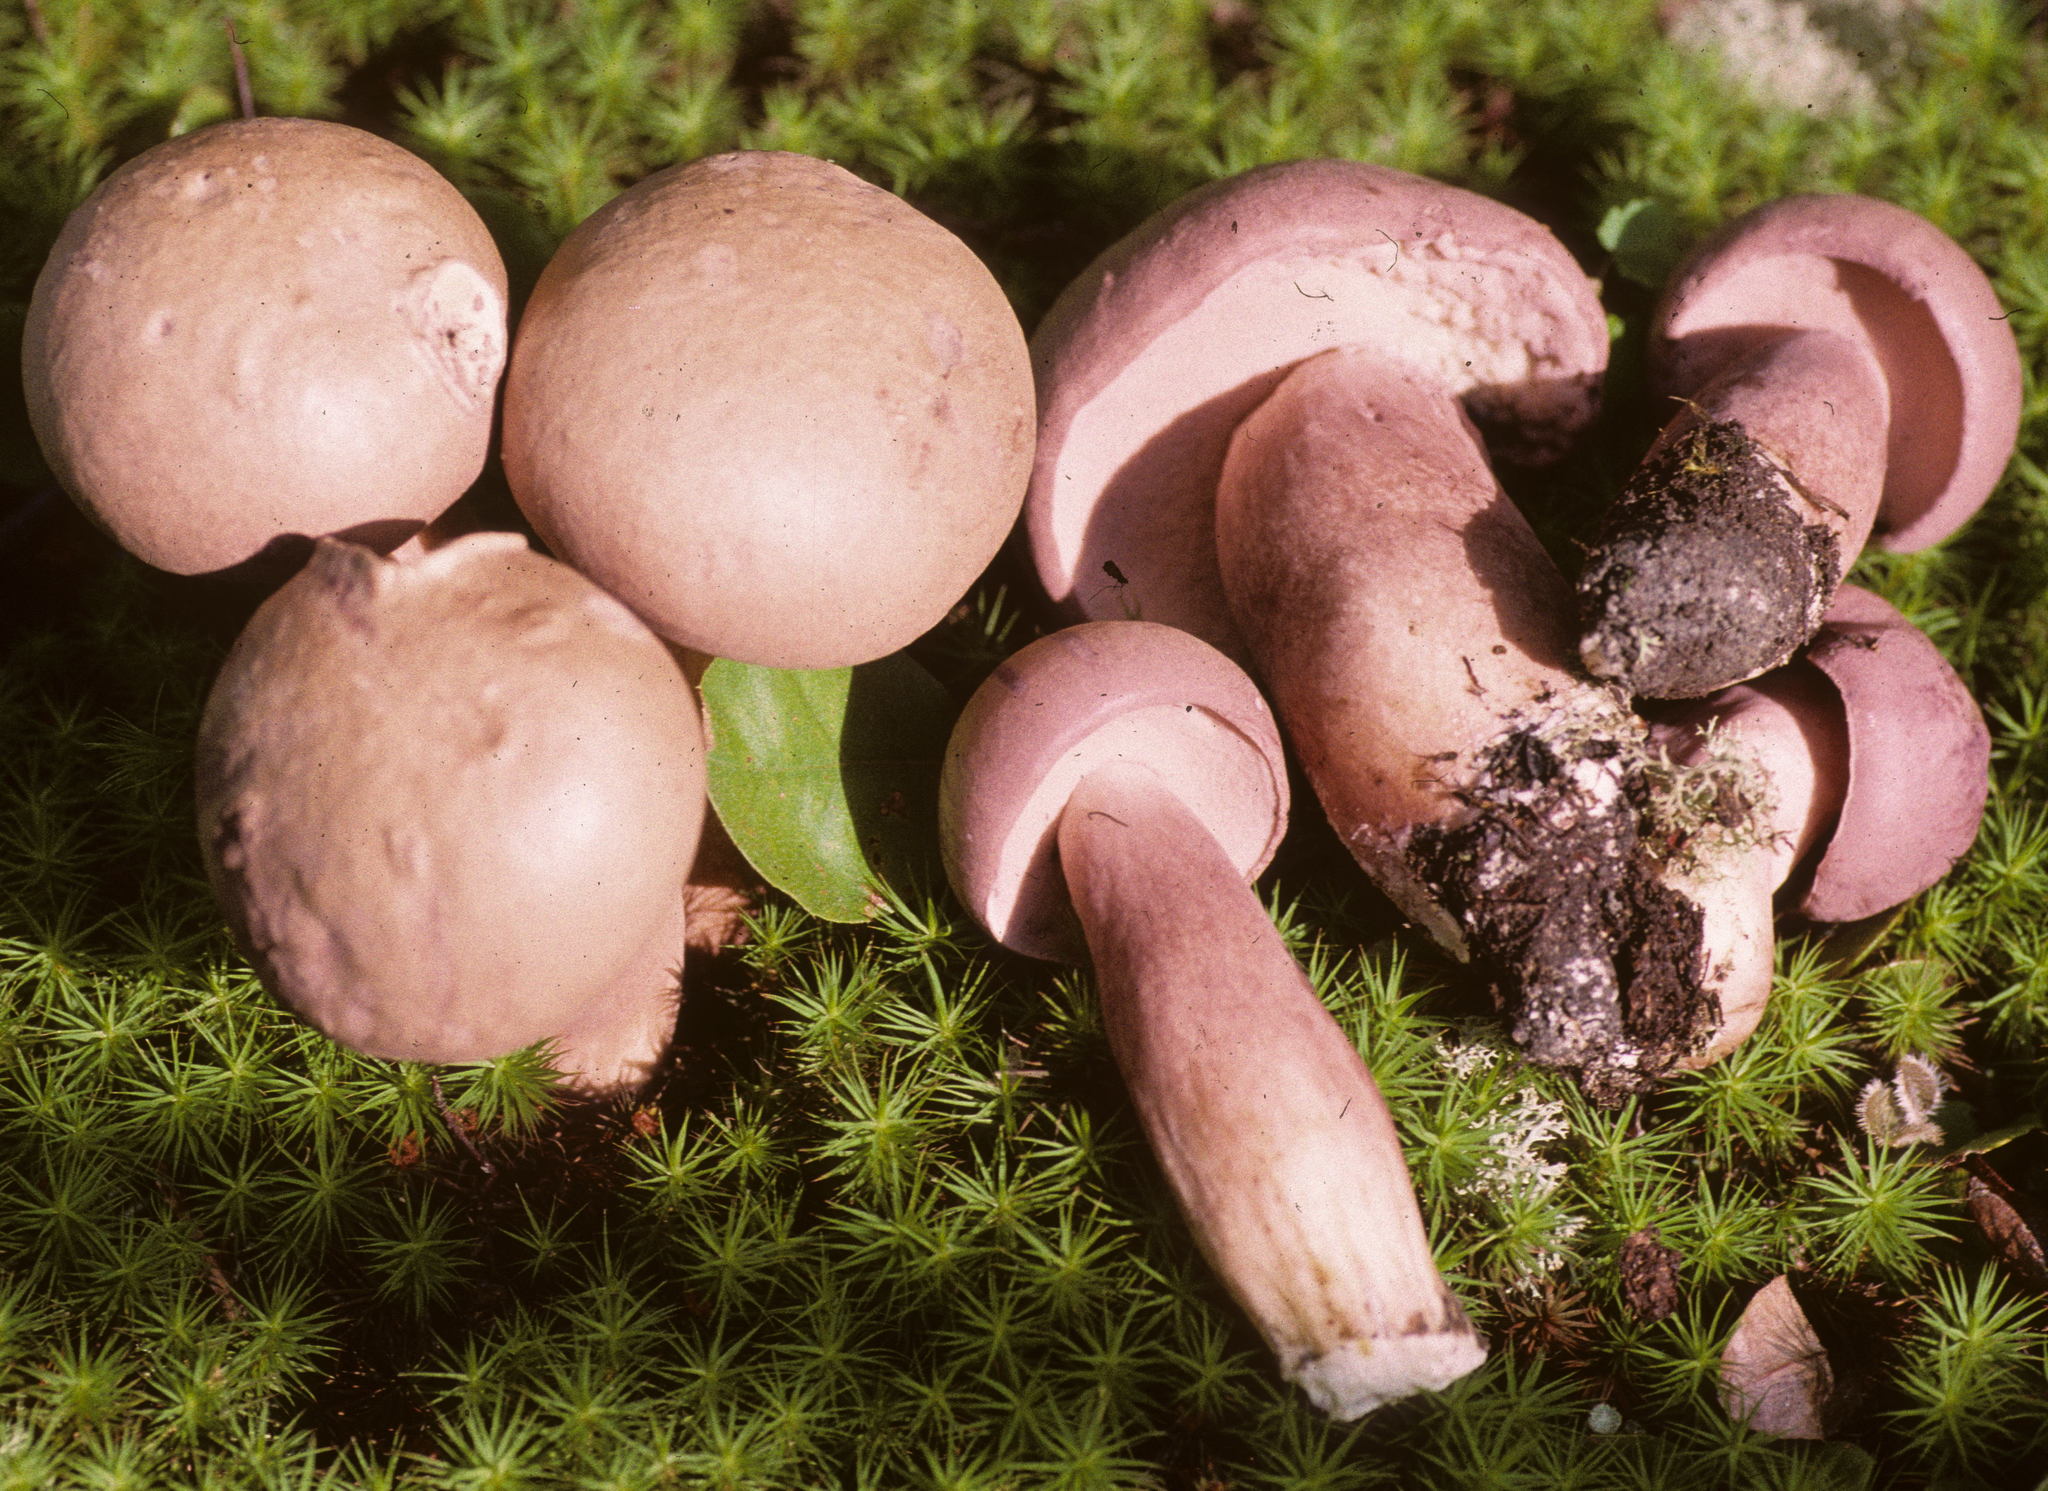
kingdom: Fungi
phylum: Basidiomycota
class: Agaricomycetes
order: Boletales
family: Boletaceae
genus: Tylopilus
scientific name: Tylopilus violatinctus
